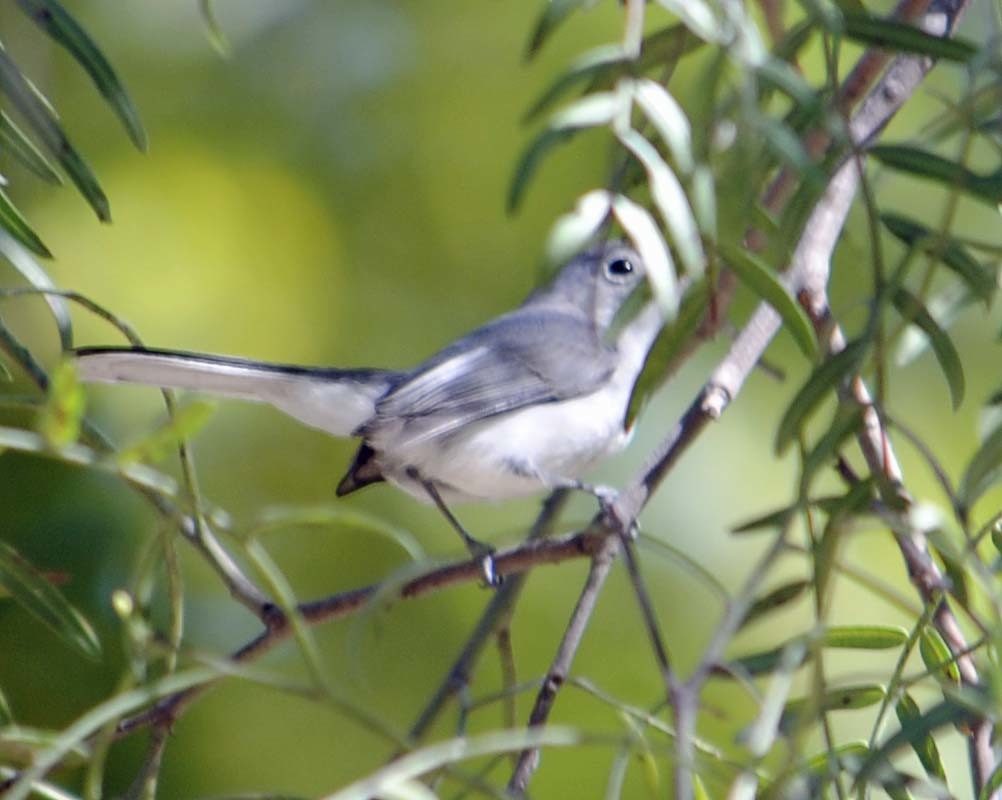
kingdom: Animalia
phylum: Chordata
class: Aves
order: Passeriformes
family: Polioptilidae
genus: Polioptila
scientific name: Polioptila caerulea
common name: Blue-gray gnatcatcher
